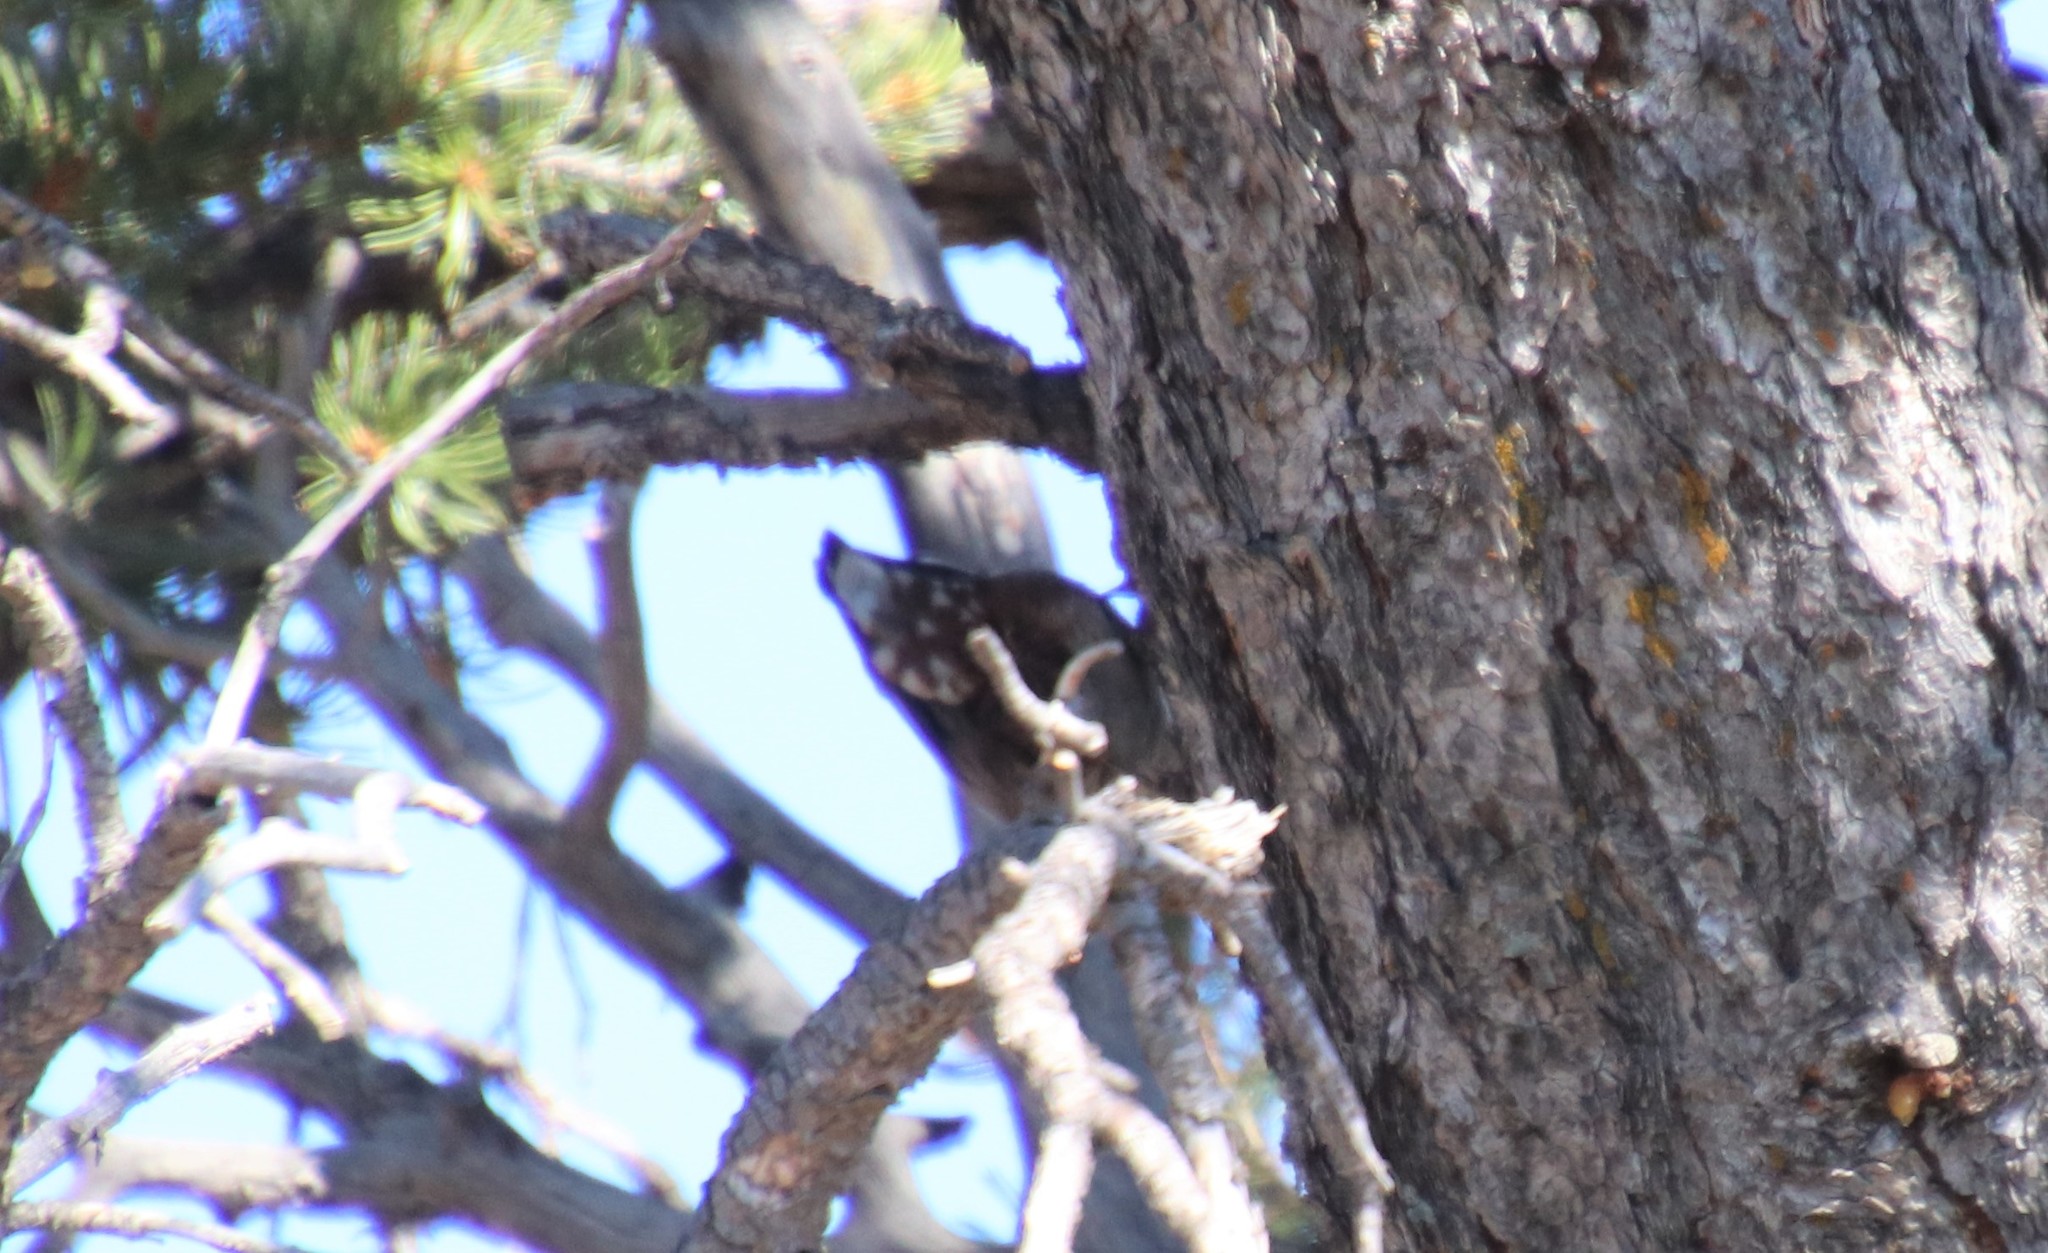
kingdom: Animalia
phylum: Chordata
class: Aves
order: Passeriformes
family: Sittidae
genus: Sitta
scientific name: Sitta carolinensis
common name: White-breasted nuthatch
